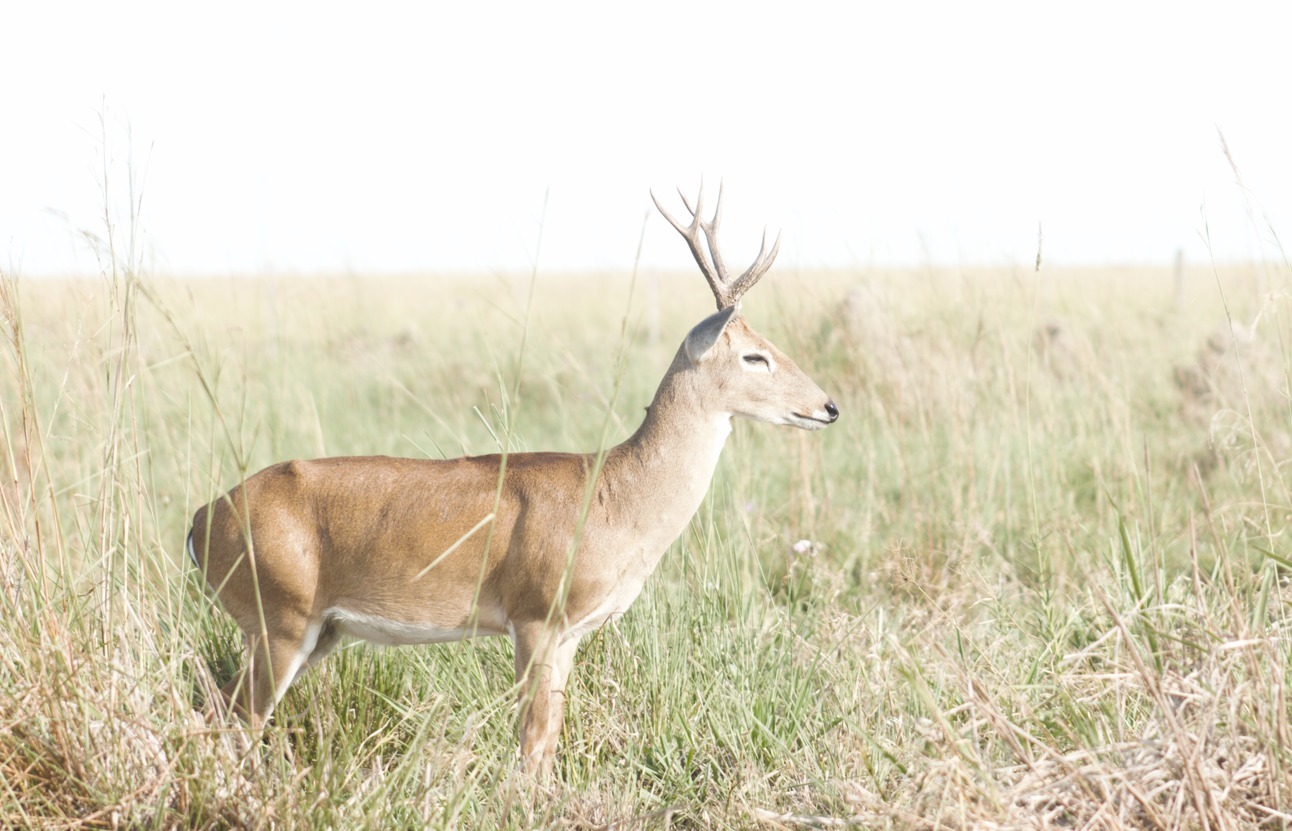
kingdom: Animalia
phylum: Chordata
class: Mammalia
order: Artiodactyla
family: Cervidae
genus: Ozotoceros
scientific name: Ozotoceros bezoarticus
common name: Pampas deer
